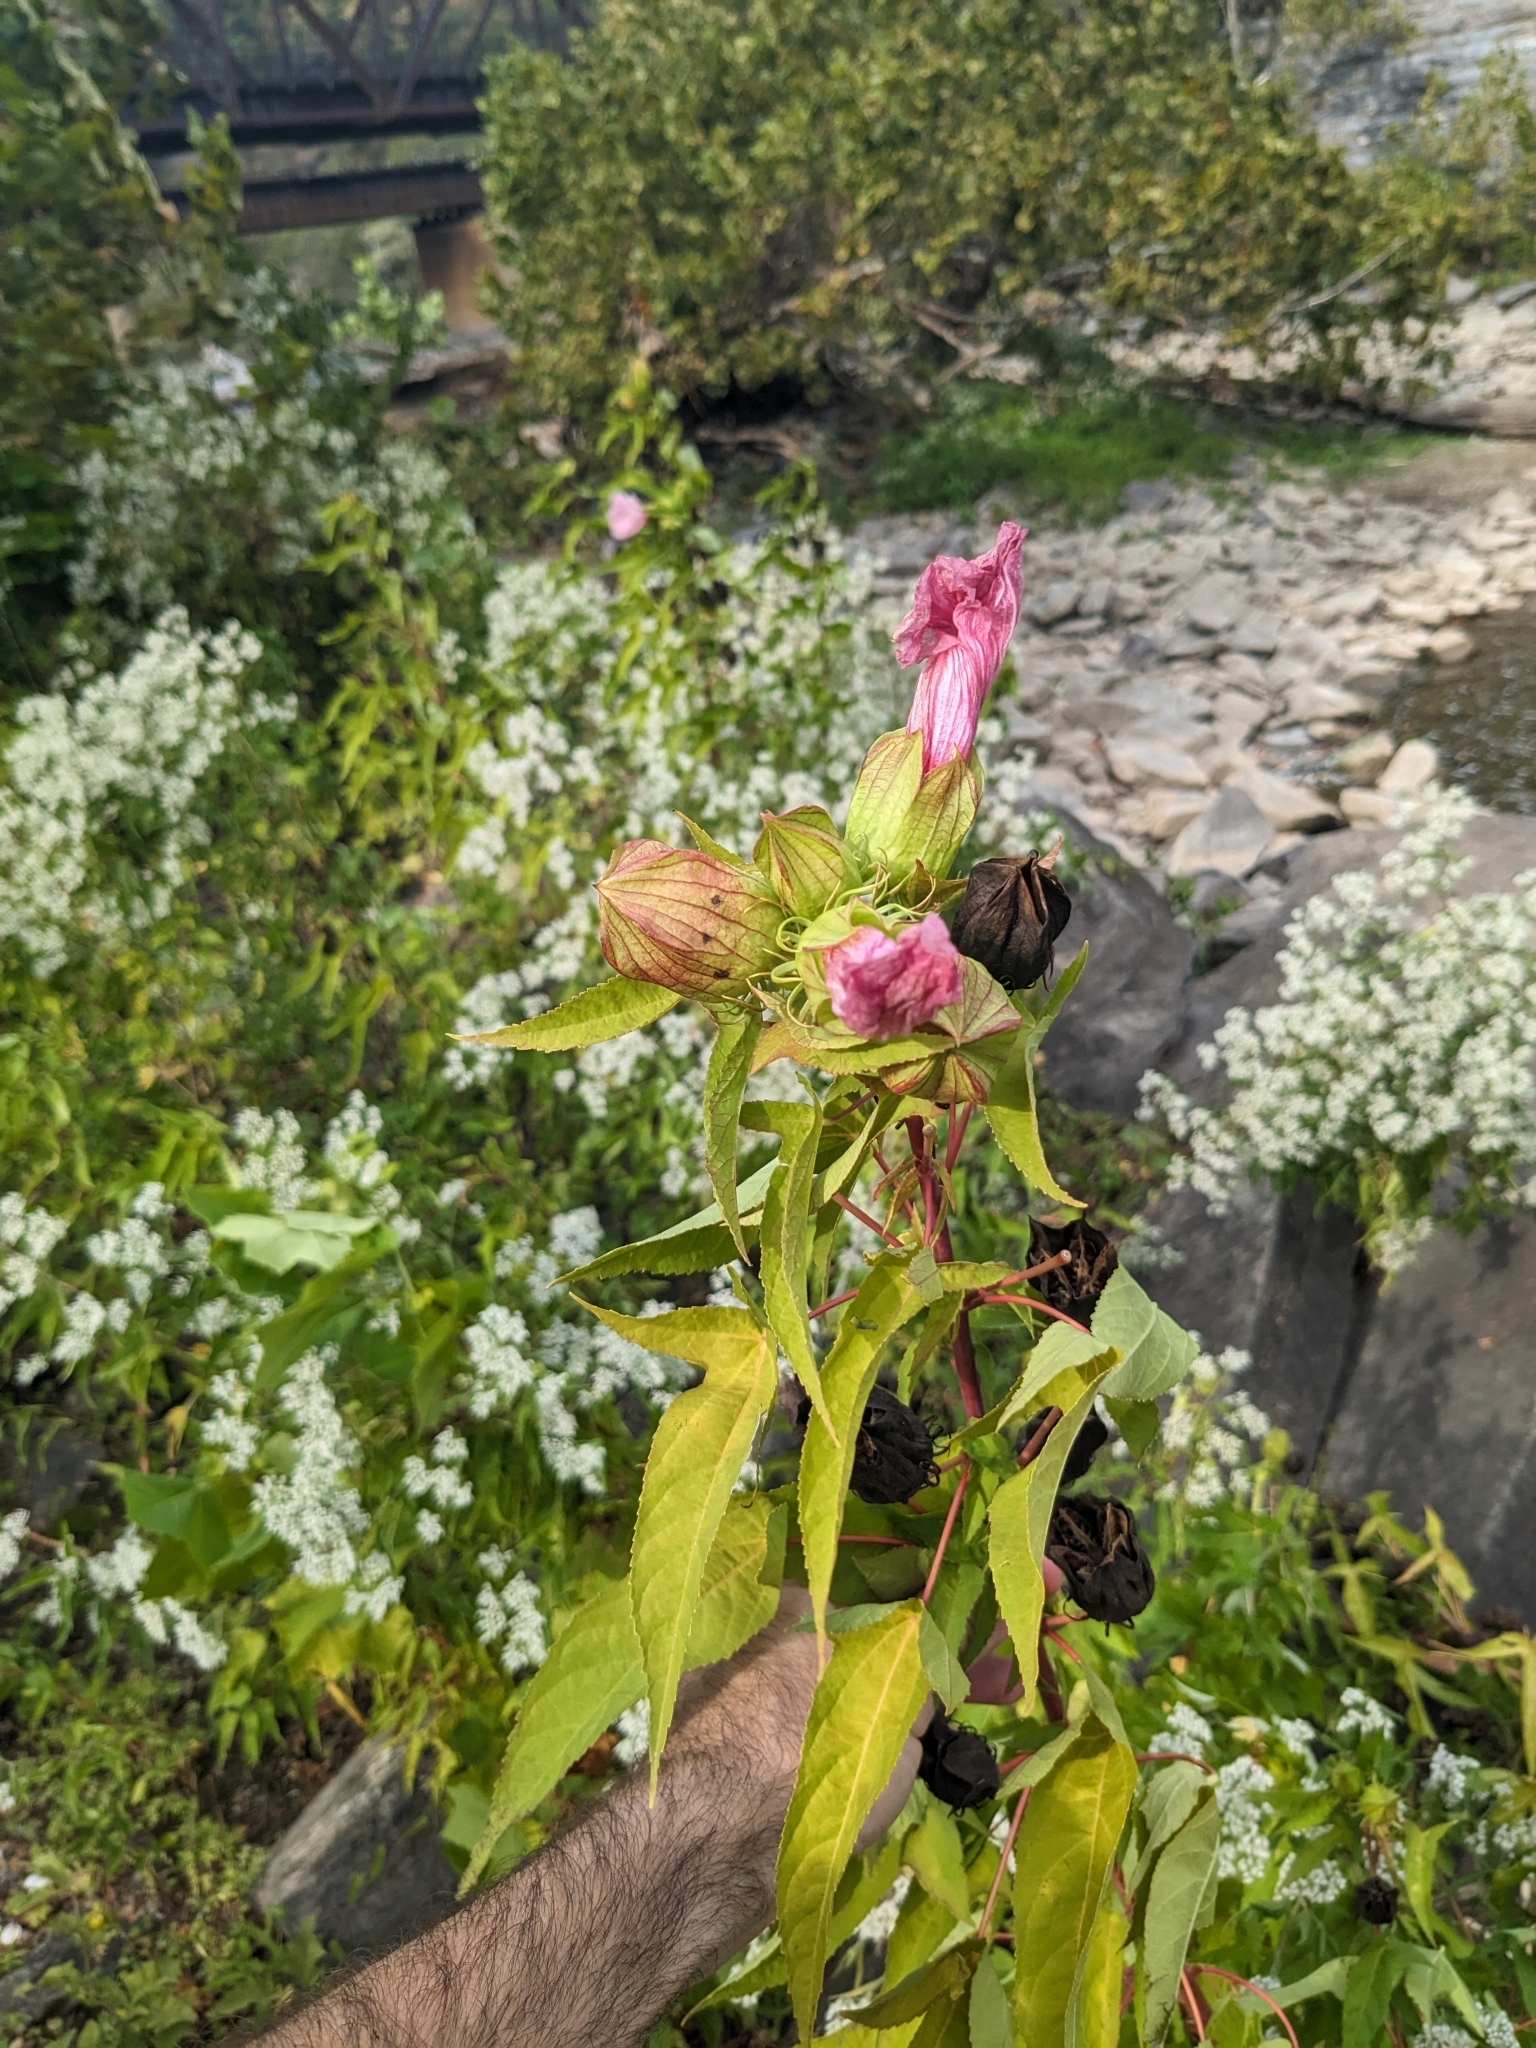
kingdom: Plantae
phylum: Tracheophyta
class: Magnoliopsida
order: Malvales
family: Malvaceae
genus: Hibiscus
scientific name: Hibiscus laevis
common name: Scarlet rose-mallow
